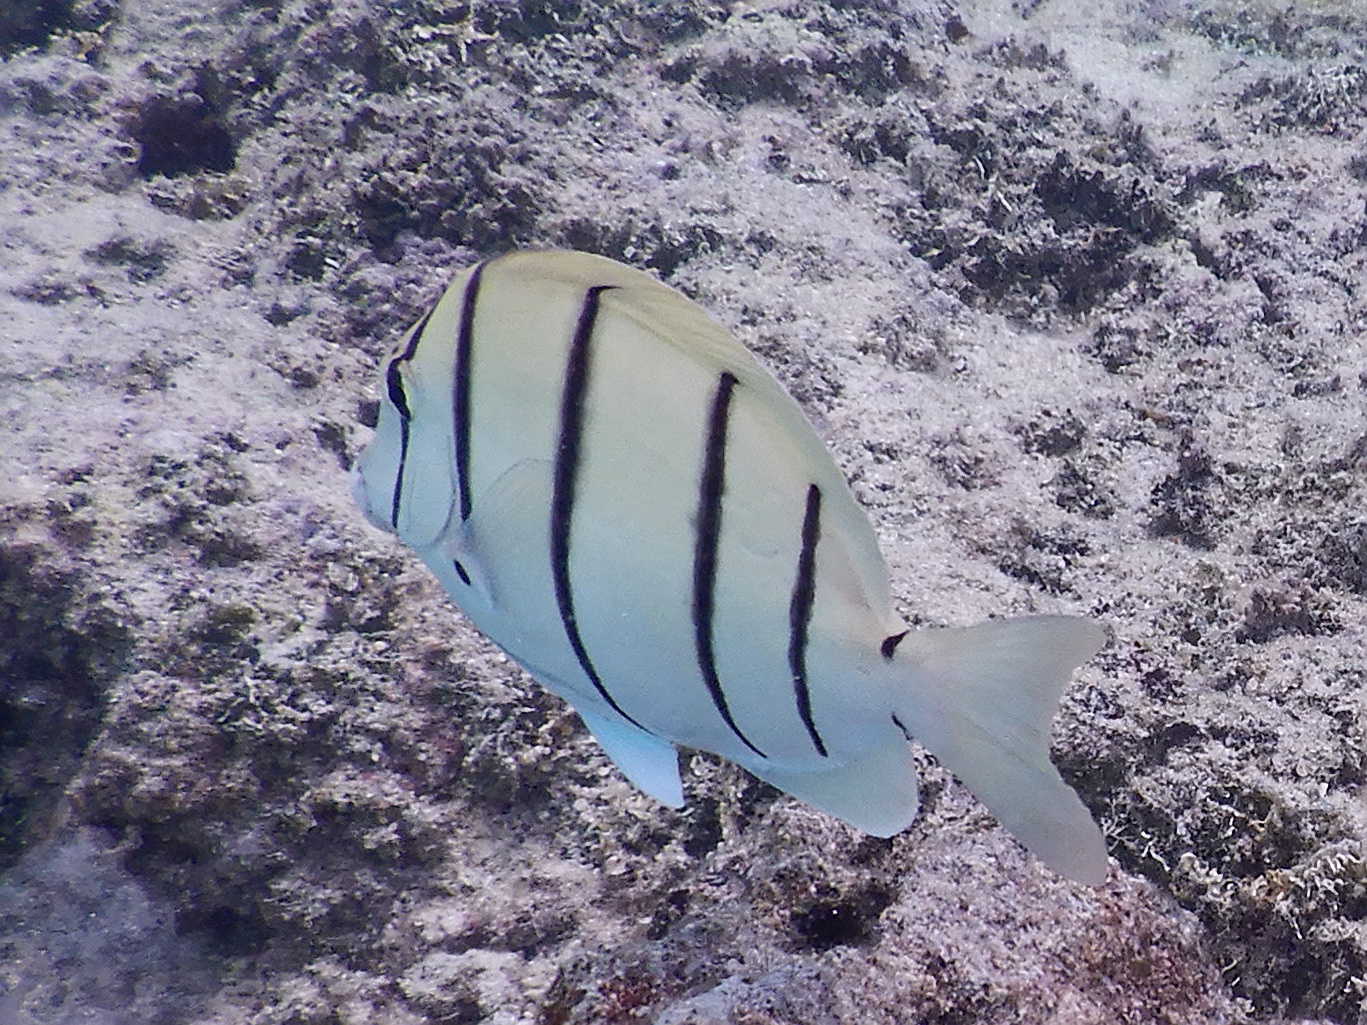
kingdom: Animalia
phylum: Chordata
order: Perciformes
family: Acanthuridae
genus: Acanthurus
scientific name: Acanthurus triostegus
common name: Convict surgeonfish
